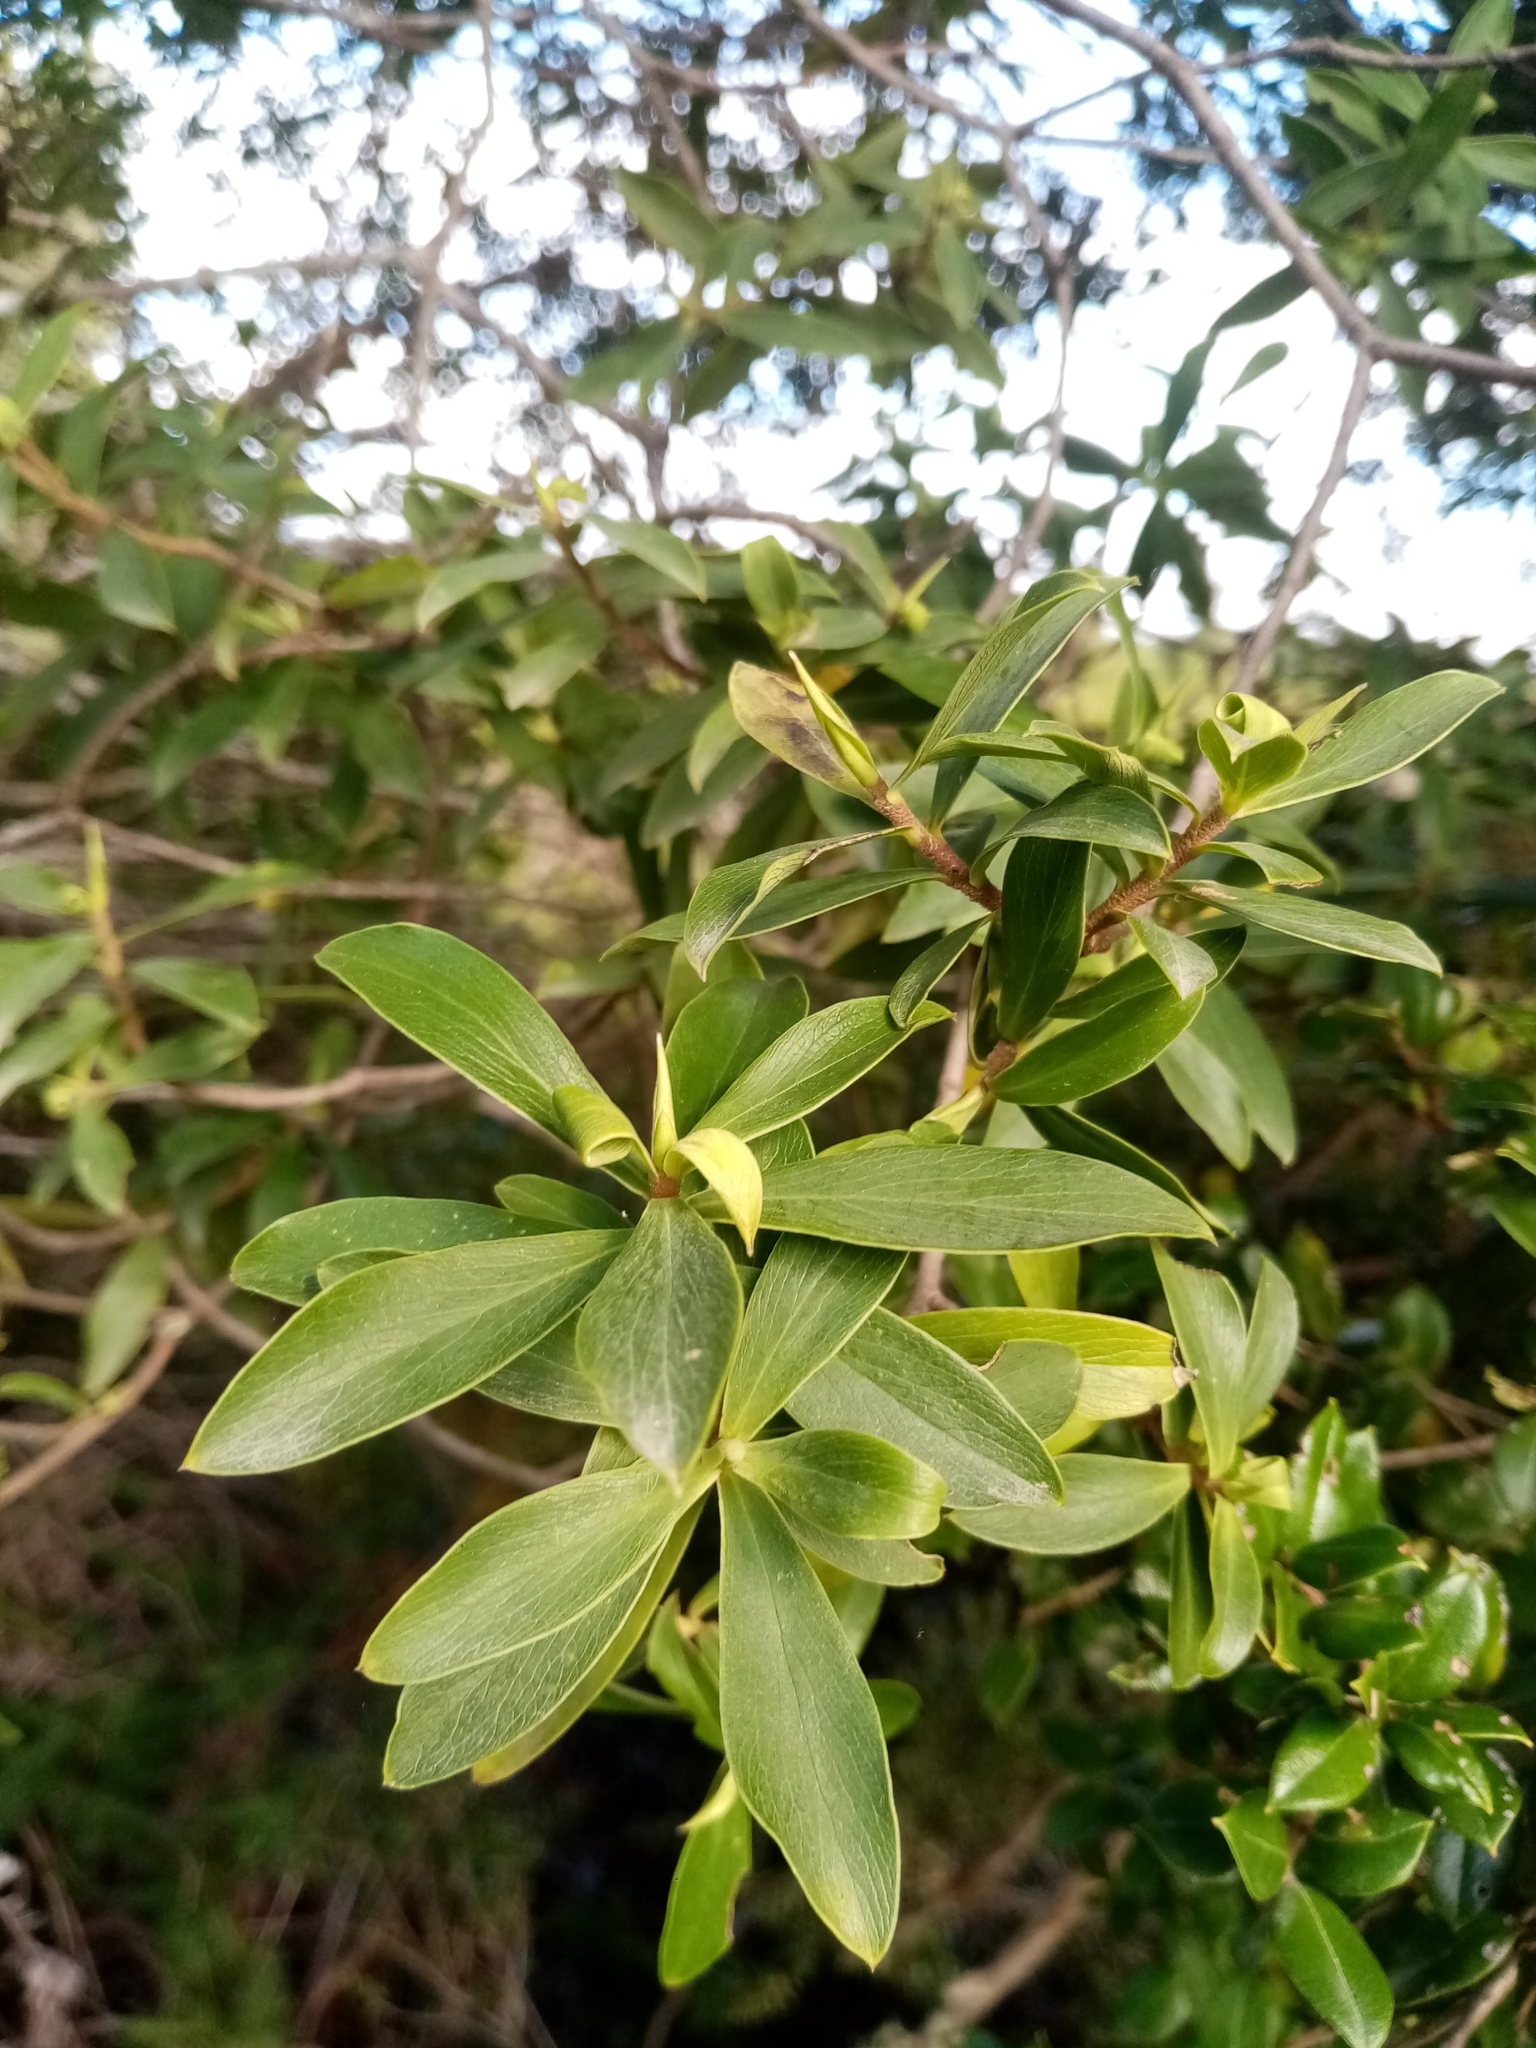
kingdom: Plantae
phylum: Tracheophyta
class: Magnoliopsida
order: Malvales
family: Thymelaeaceae
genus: Ovidia
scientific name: Ovidia pillo-pillo
